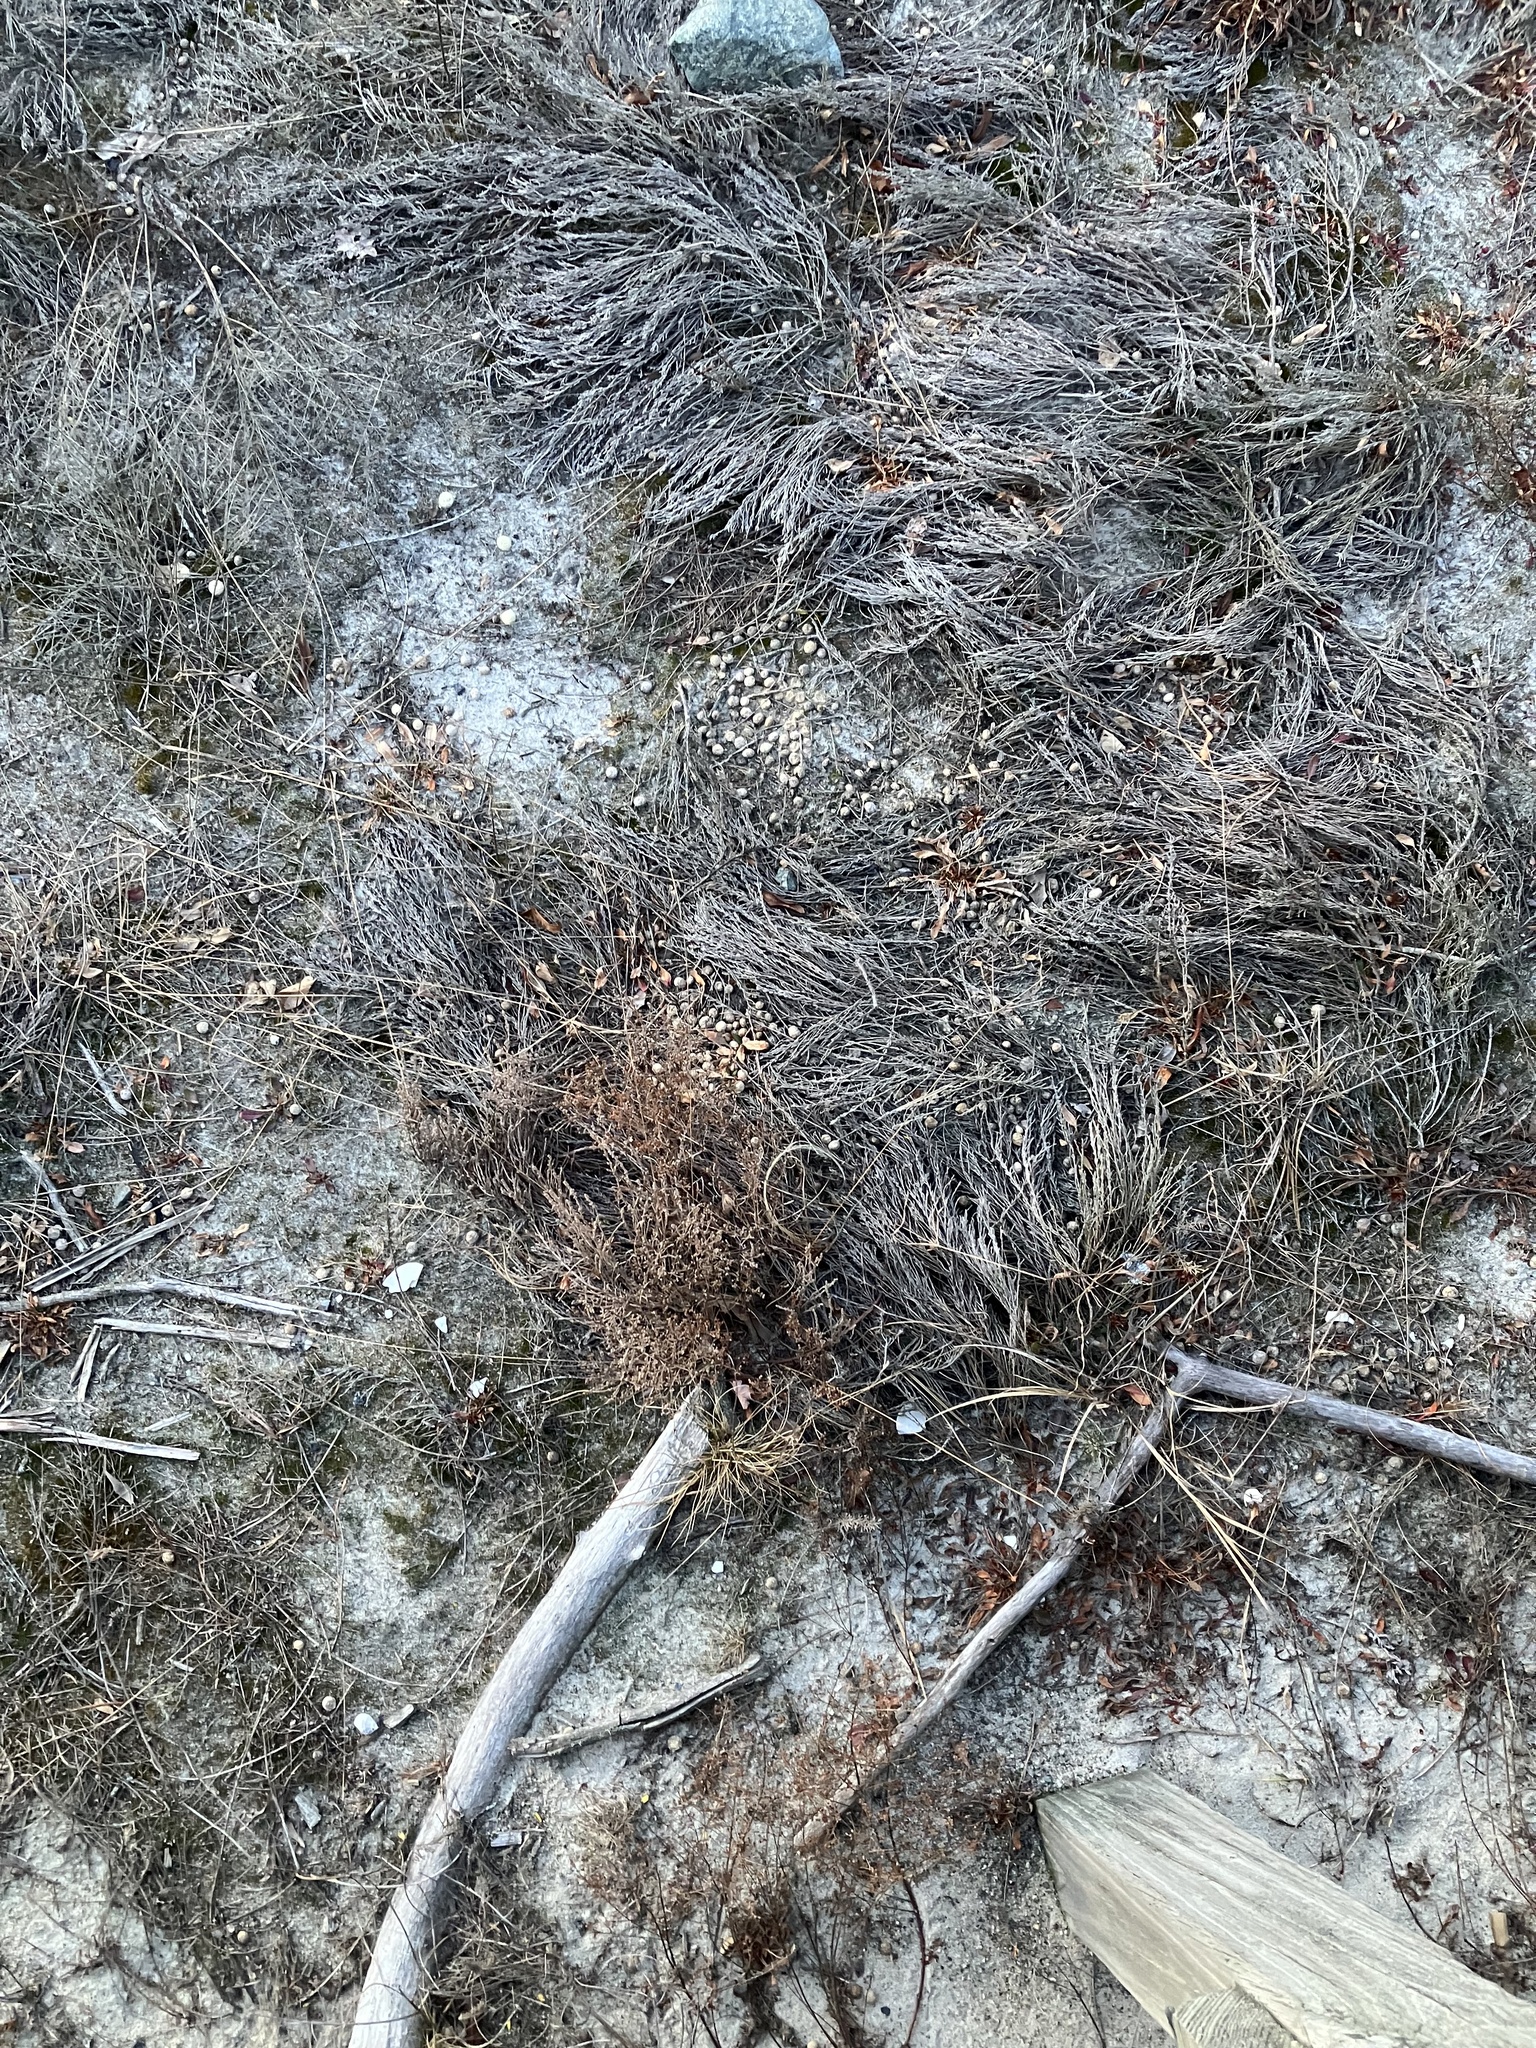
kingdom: Plantae
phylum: Tracheophyta
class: Magnoliopsida
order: Malvales
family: Cistaceae
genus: Hudsonia
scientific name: Hudsonia tomentosa
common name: Beach-heath
